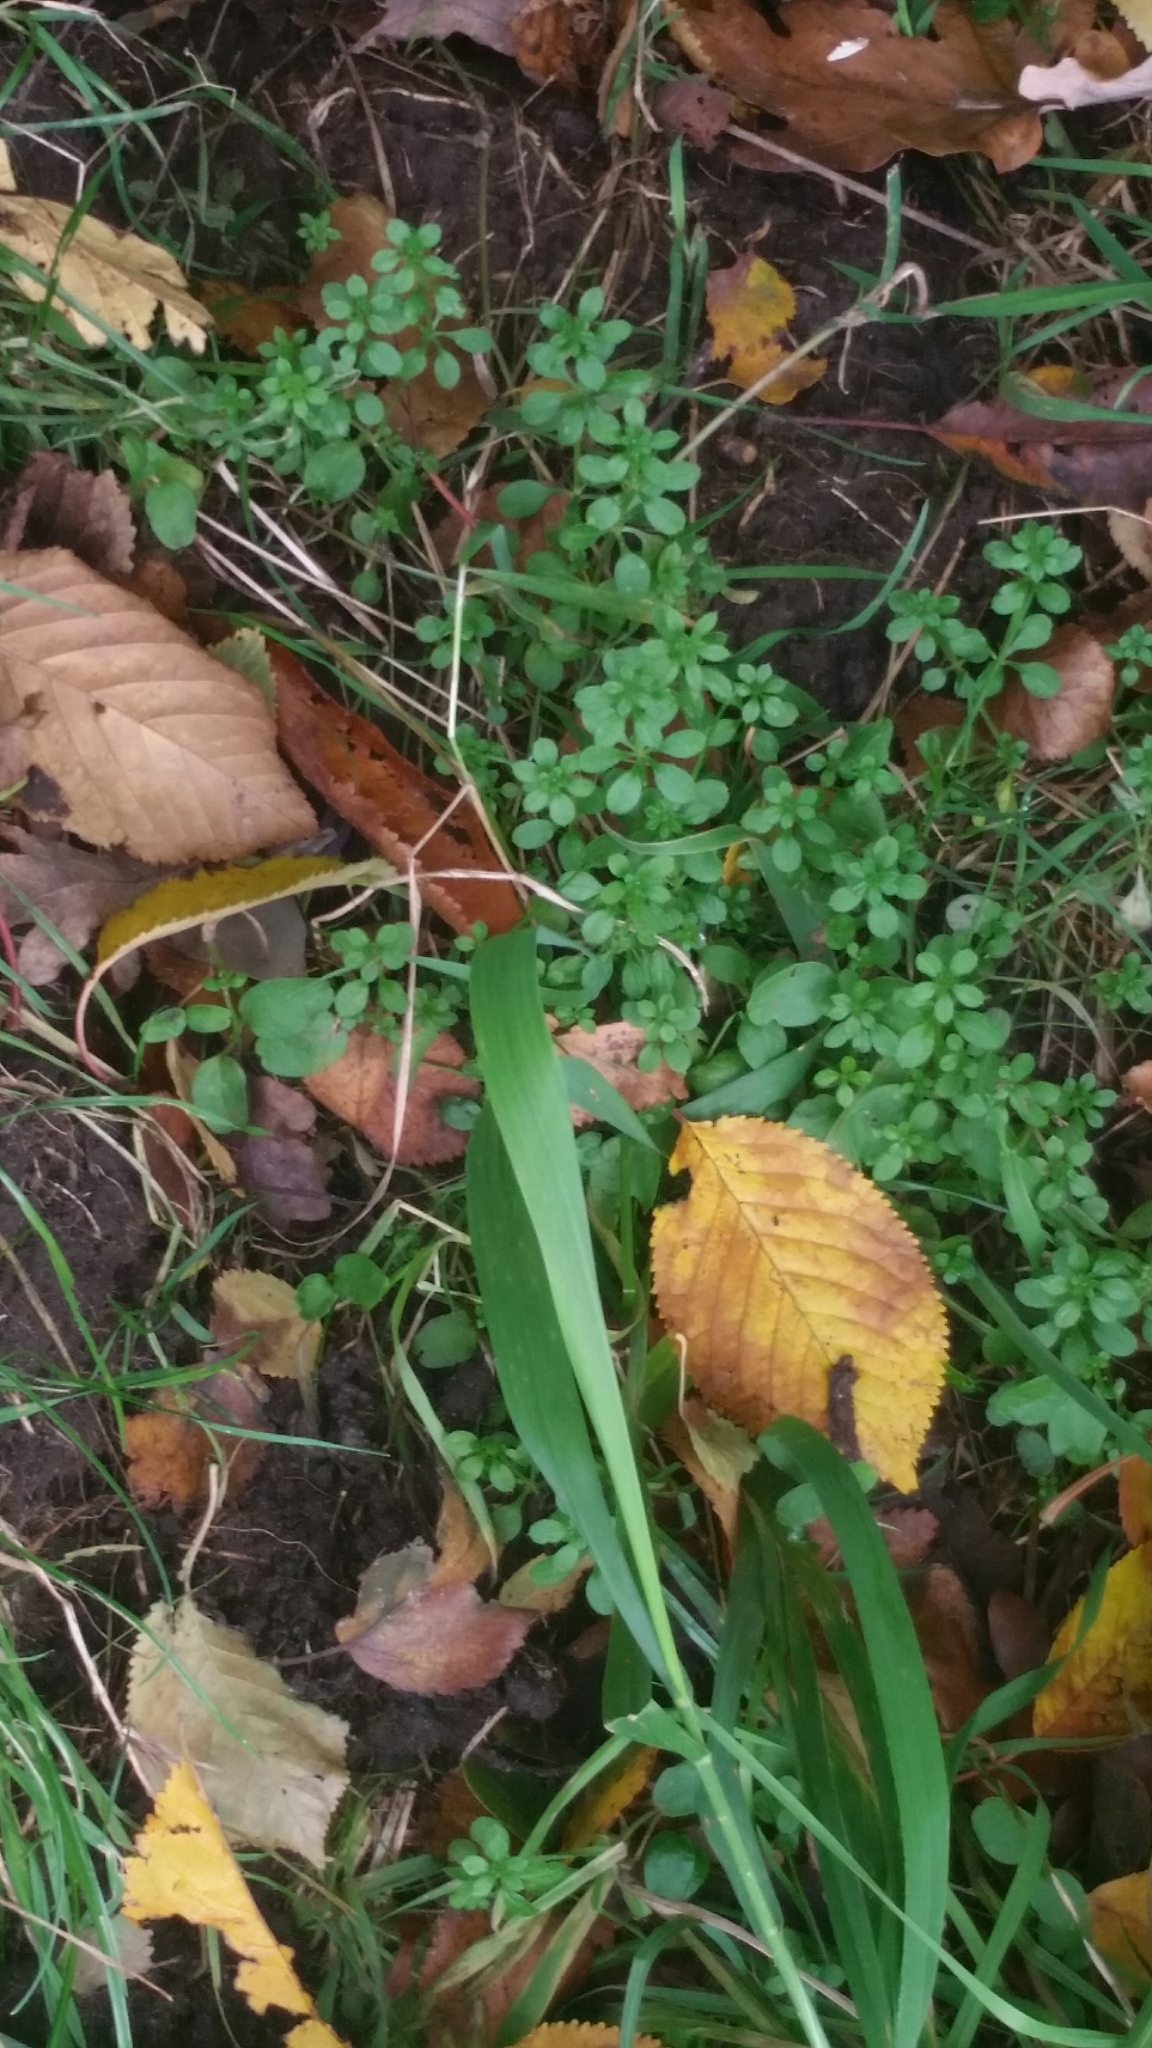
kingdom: Plantae
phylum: Tracheophyta
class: Magnoliopsida
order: Gentianales
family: Rubiaceae
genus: Galium
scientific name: Galium aparine
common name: Cleavers
